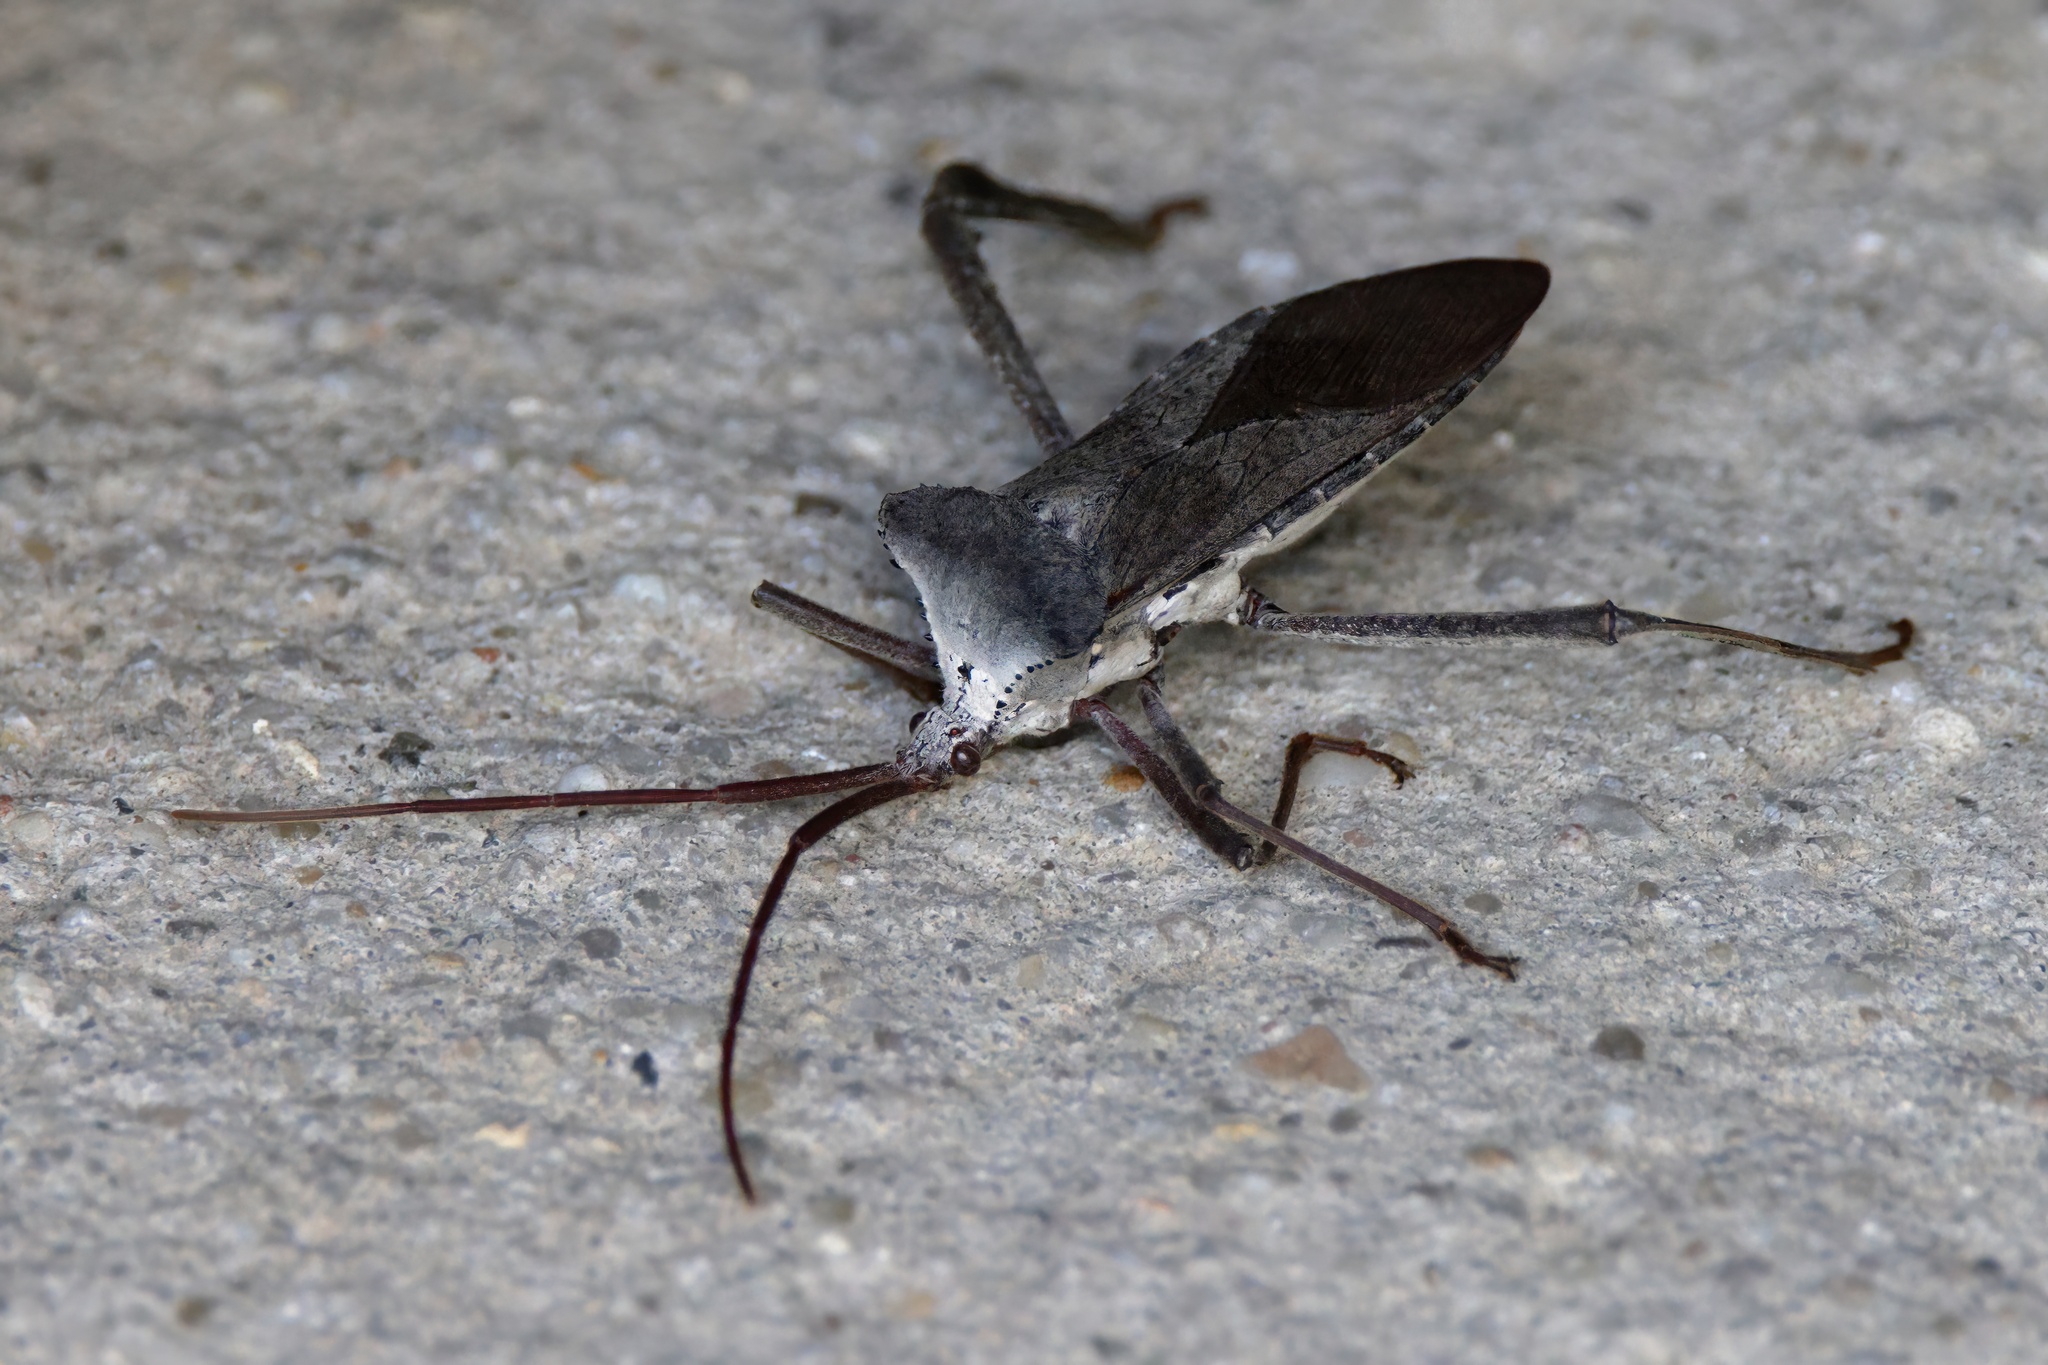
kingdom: Animalia
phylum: Arthropoda
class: Insecta
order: Hemiptera
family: Coreidae
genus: Acanthocephala
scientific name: Acanthocephala declivis
